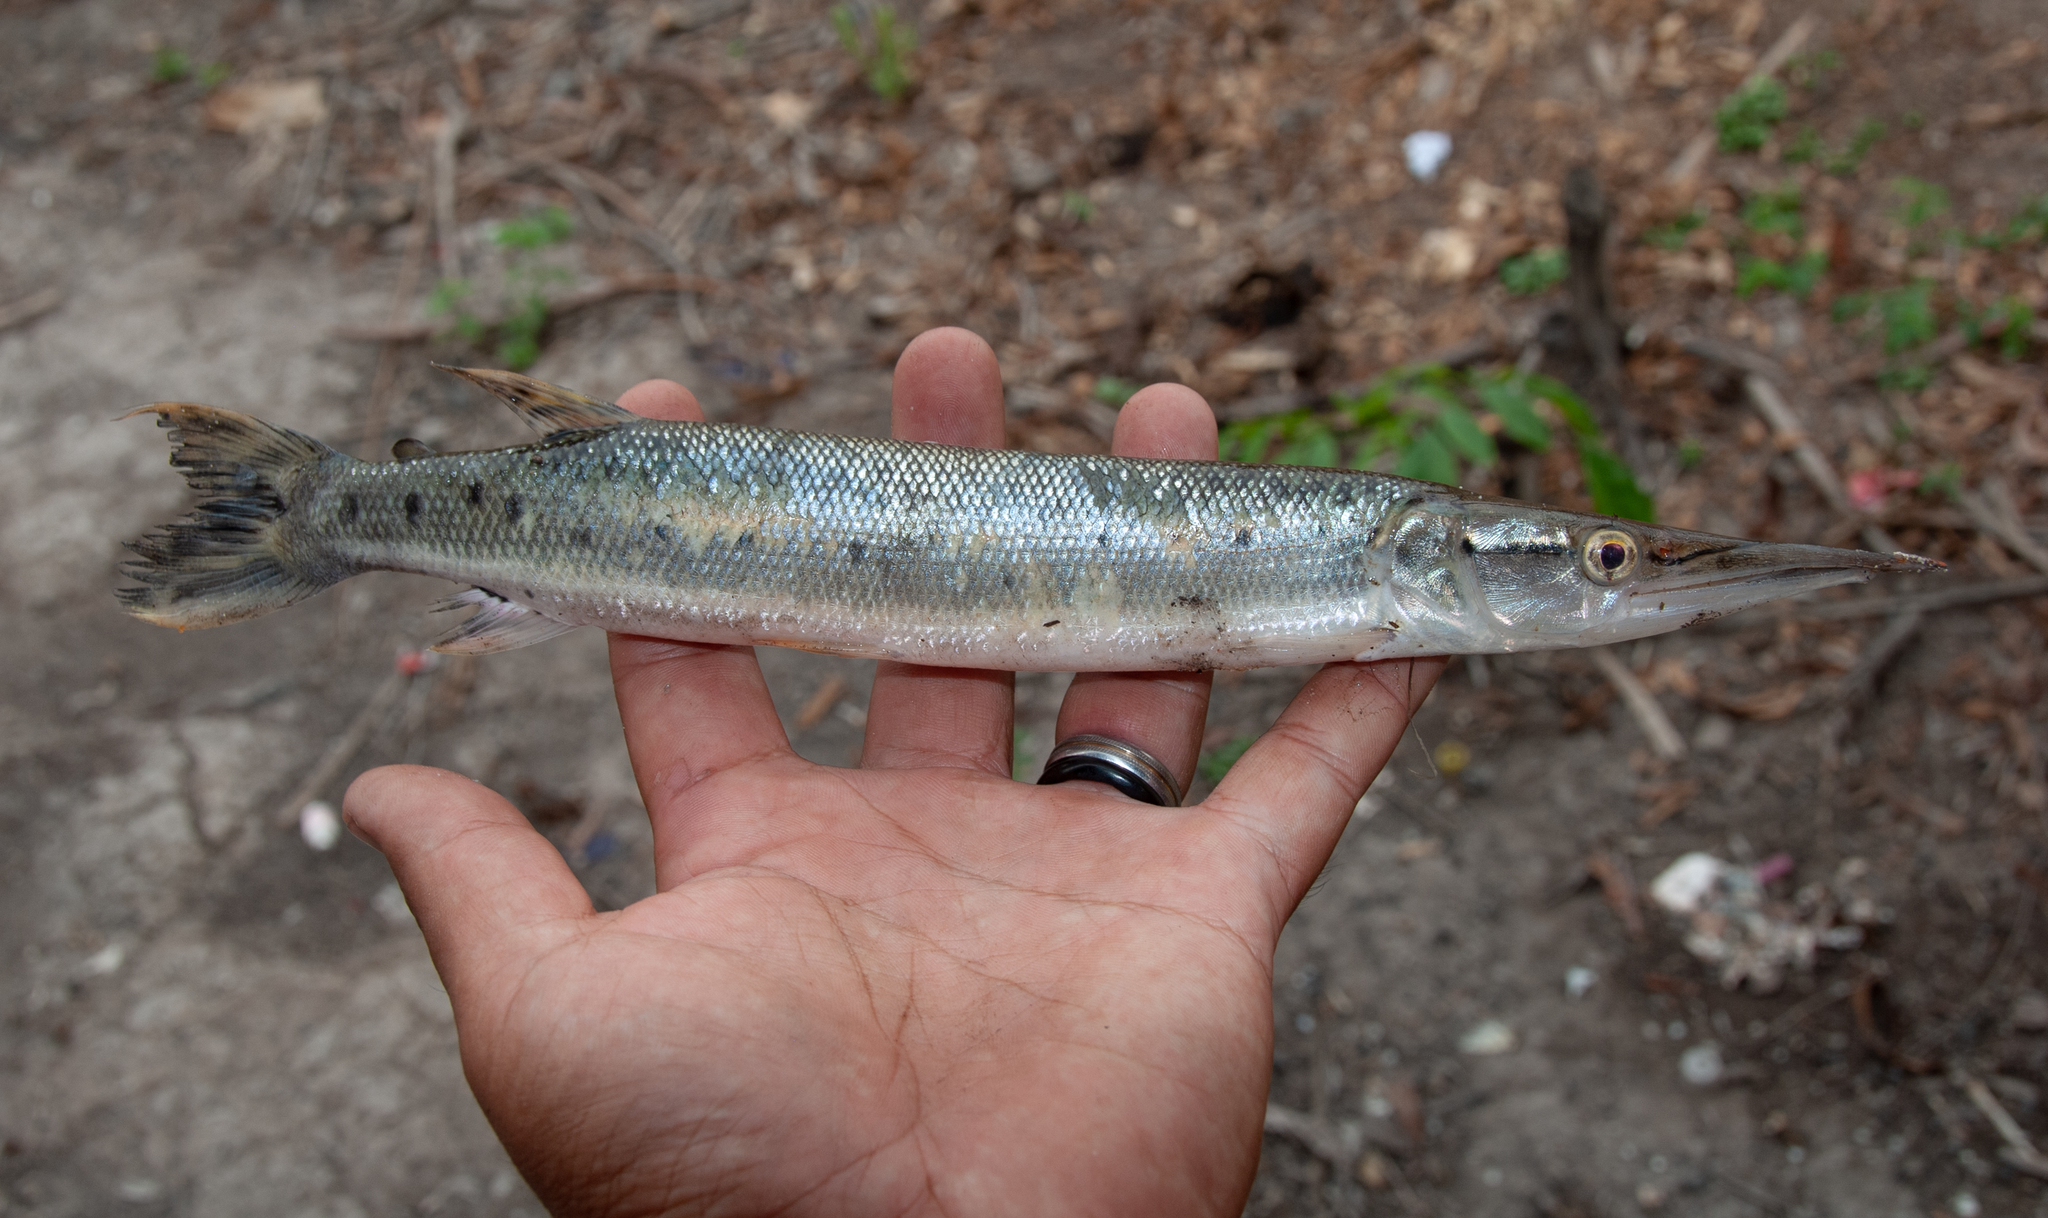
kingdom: Animalia
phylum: Chordata
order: Characiformes
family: Ctenoluciidae
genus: Boulengerella
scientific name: Boulengerella maculata
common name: Spotted pike-characin
